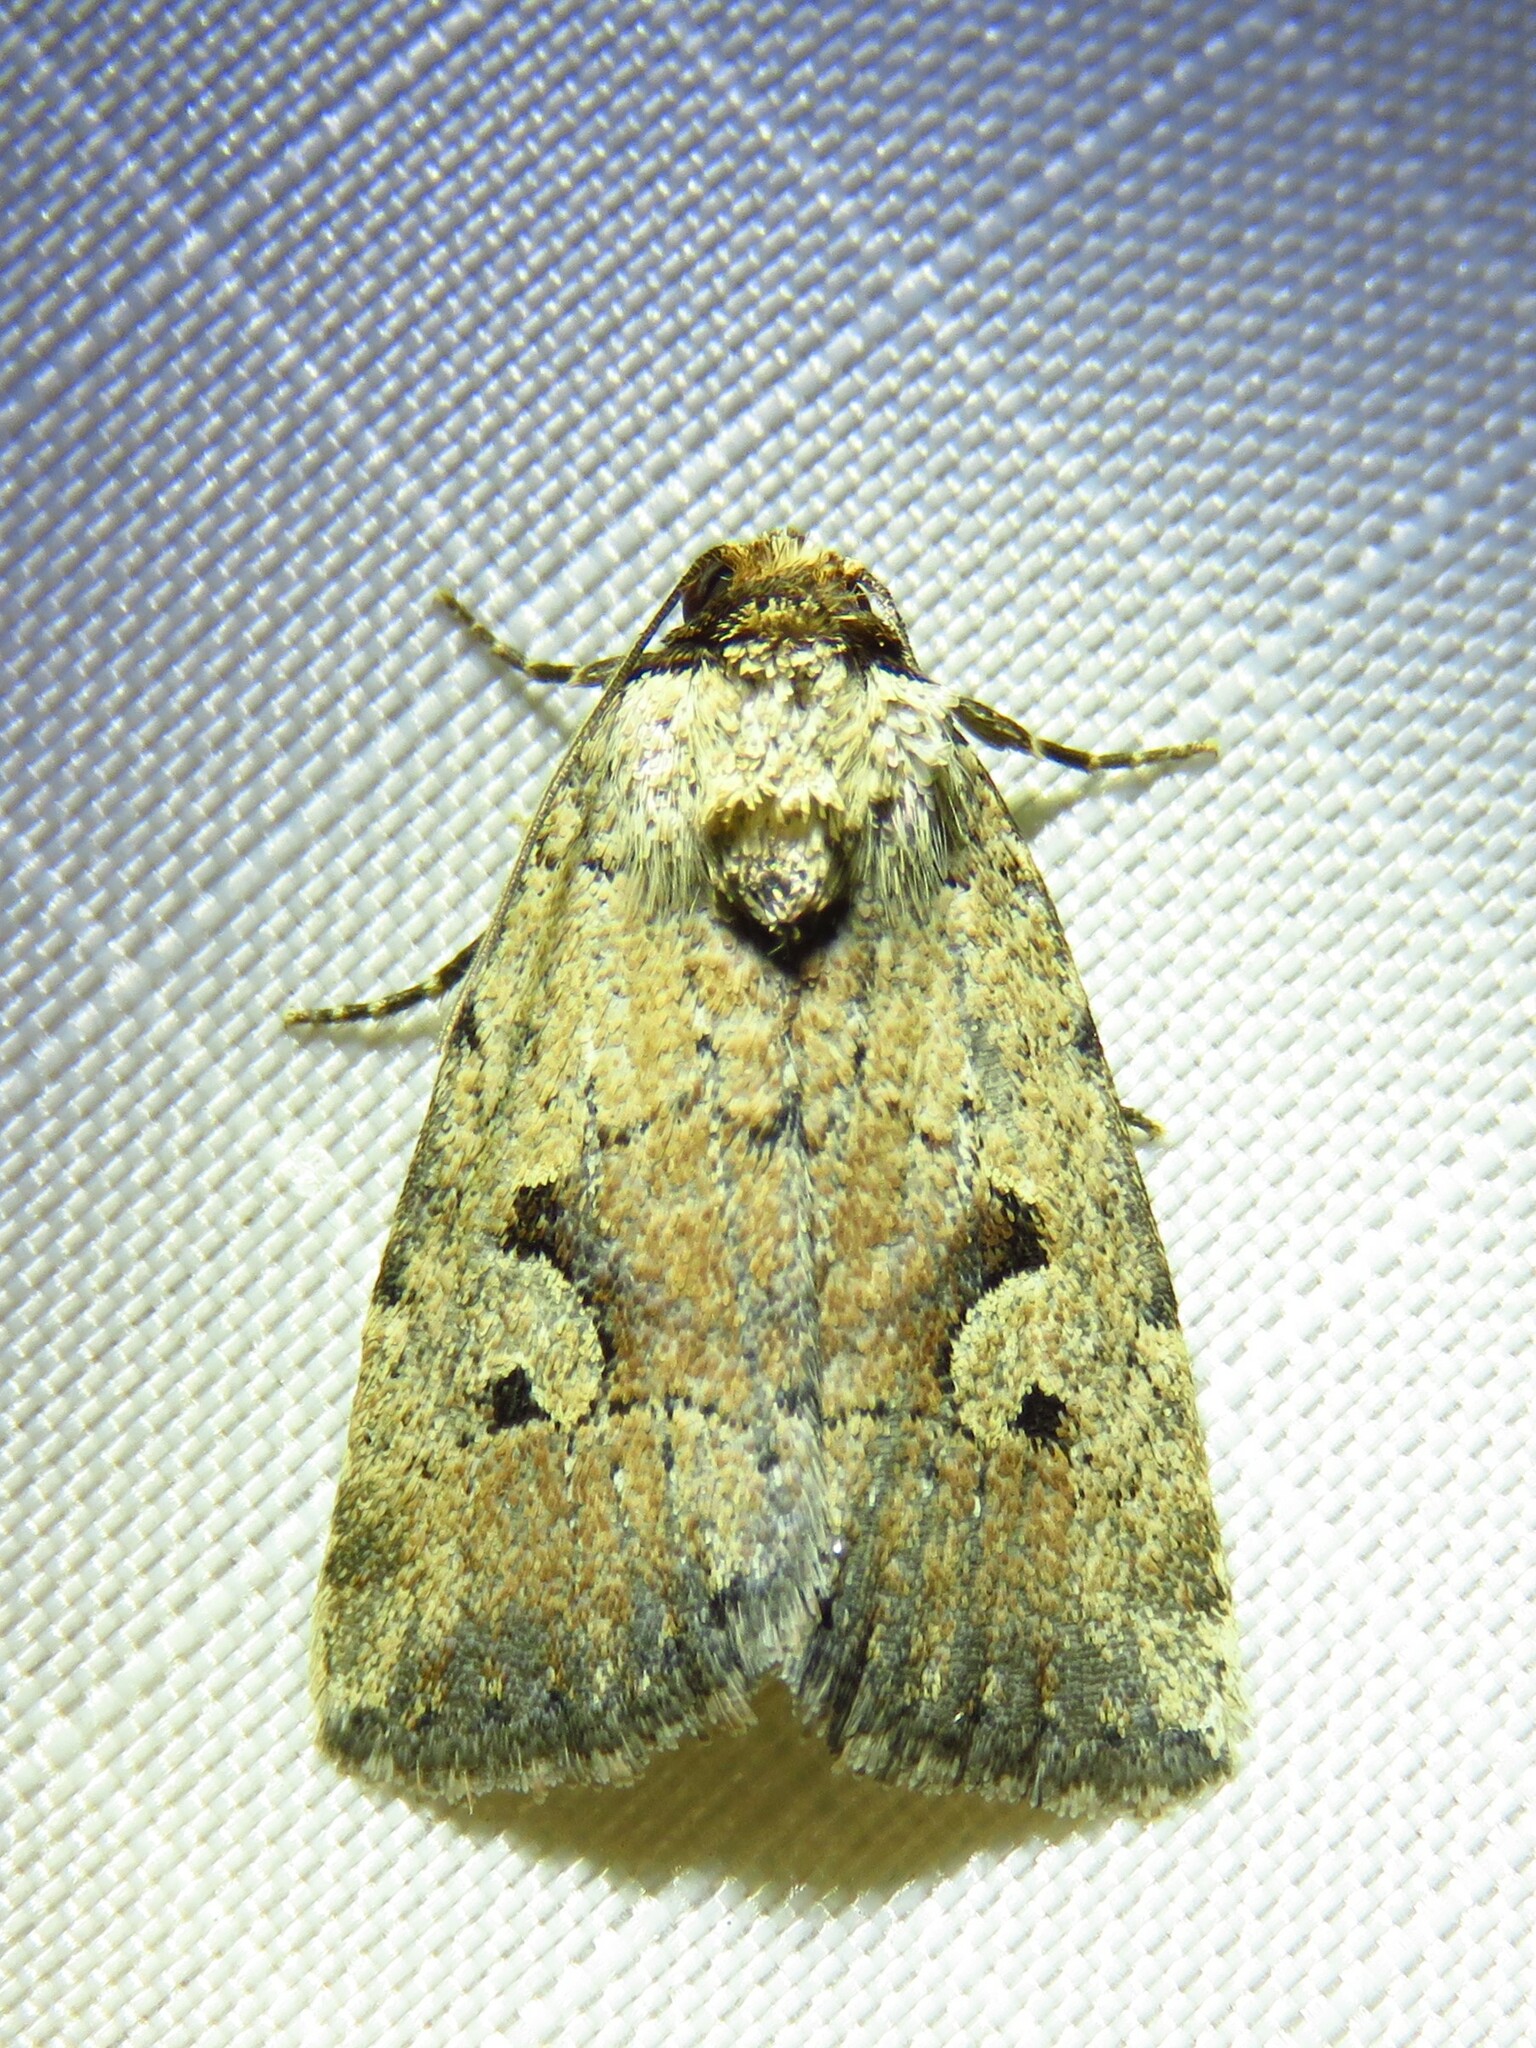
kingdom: Animalia
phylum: Arthropoda
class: Insecta
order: Lepidoptera
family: Noctuidae
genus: Elaphria
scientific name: Elaphria festivoides
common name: Festive midget
